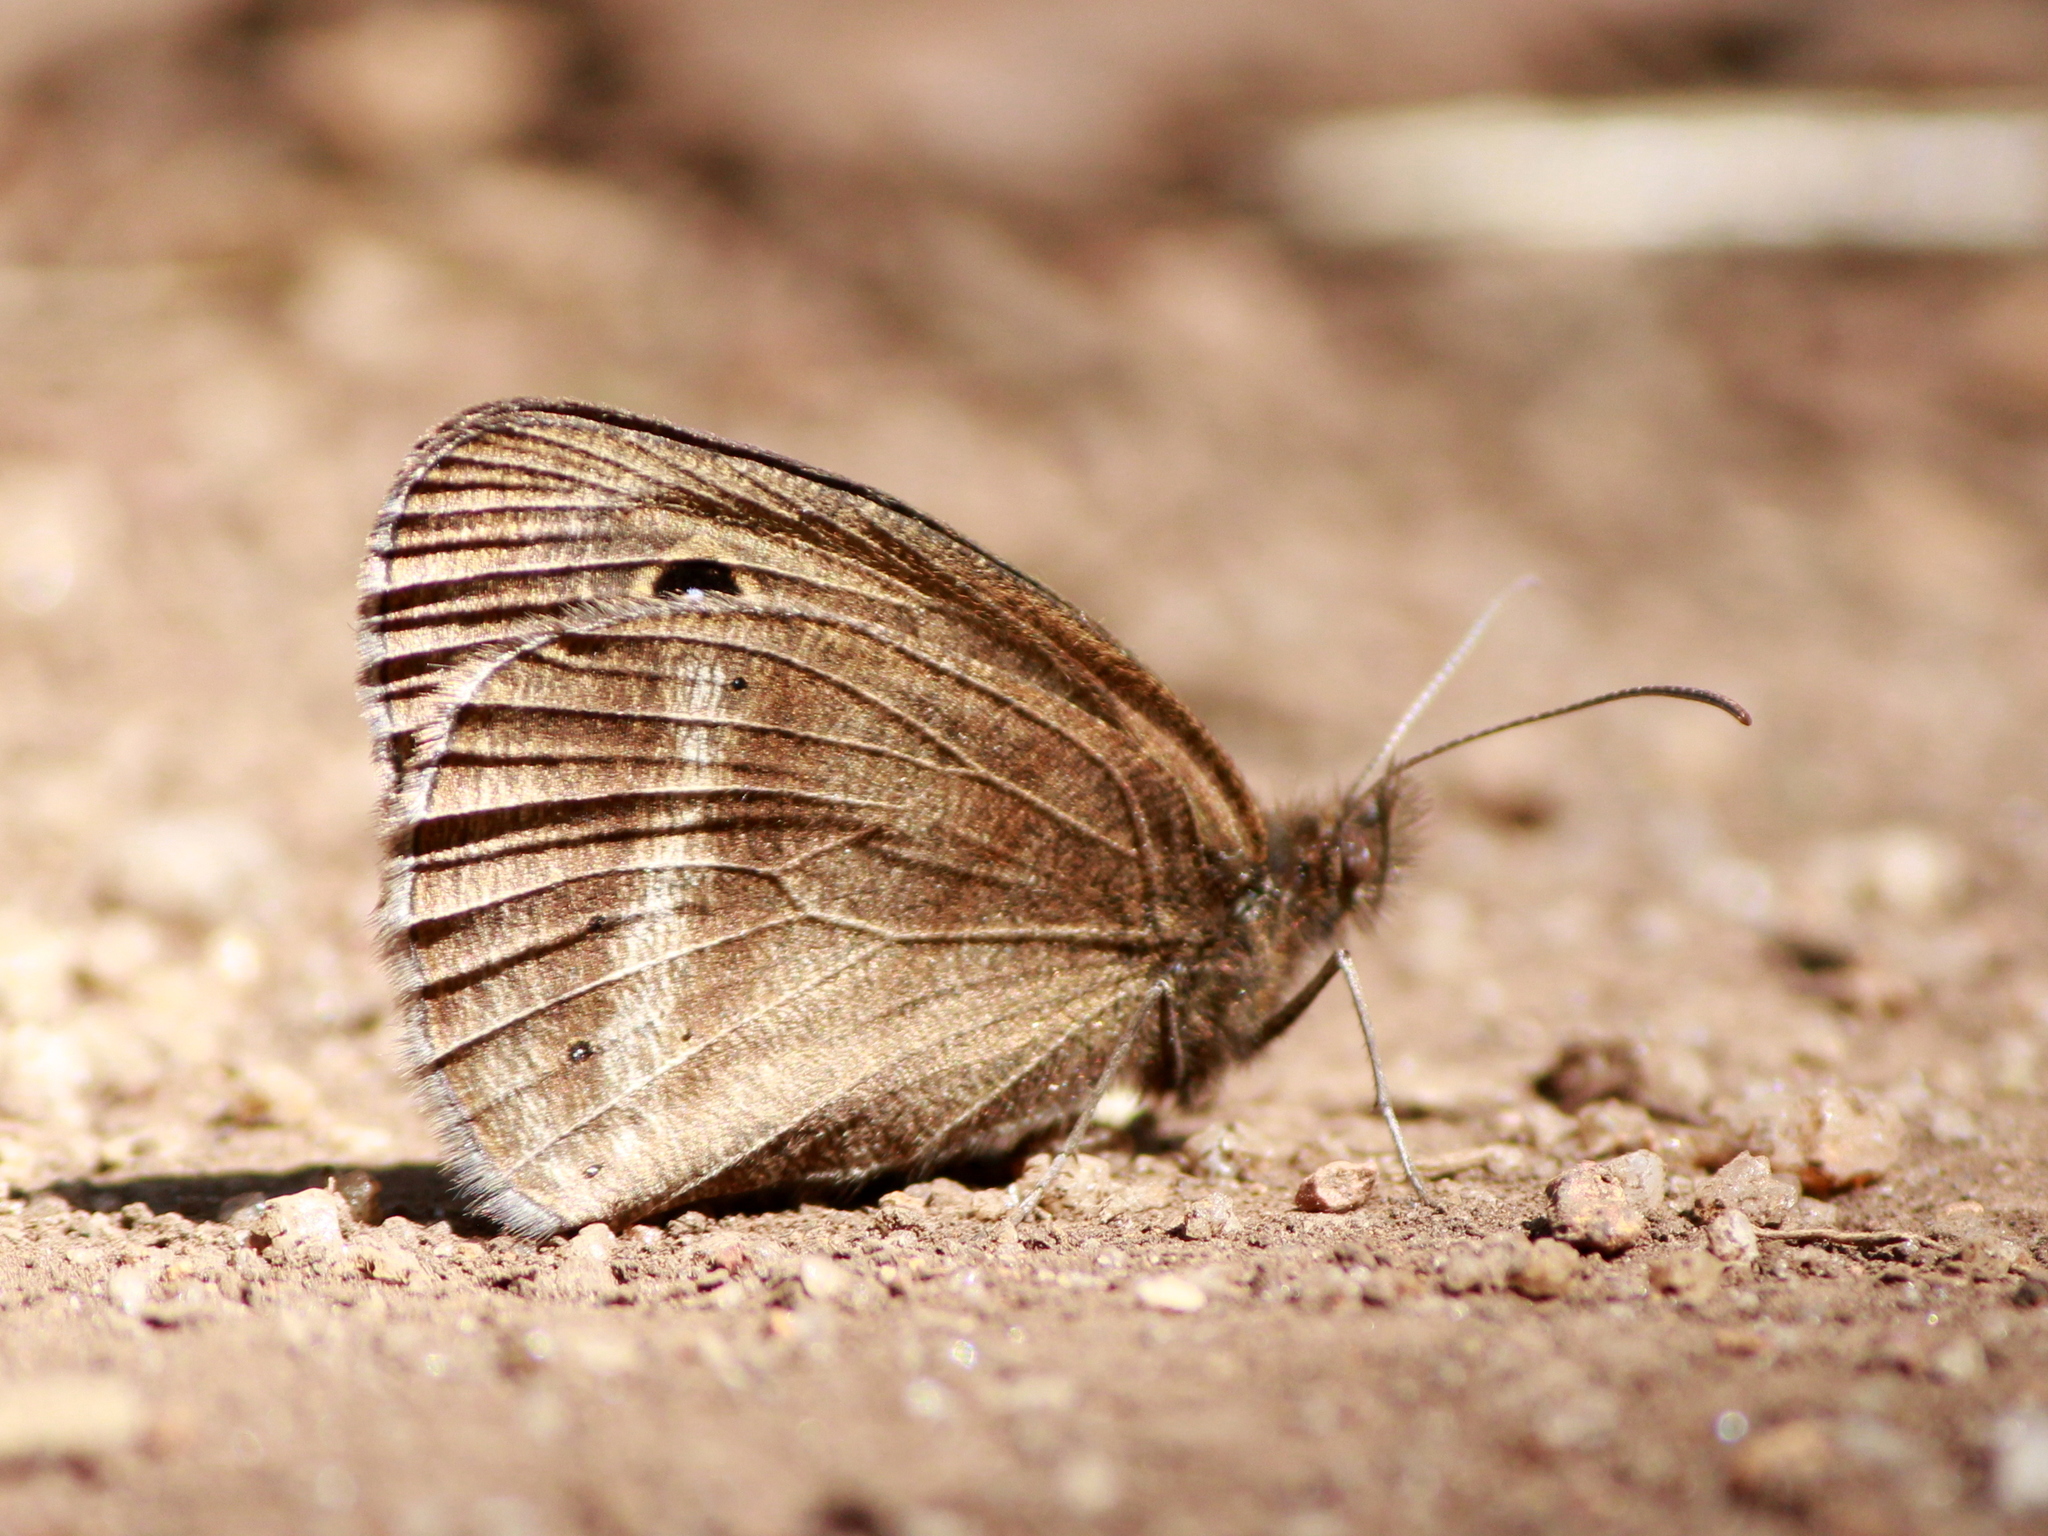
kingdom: Animalia
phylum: Arthropoda
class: Insecta
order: Lepidoptera
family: Nymphalidae
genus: Ypthima
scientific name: Ypthima ypthimoides
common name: Palni four-ring
